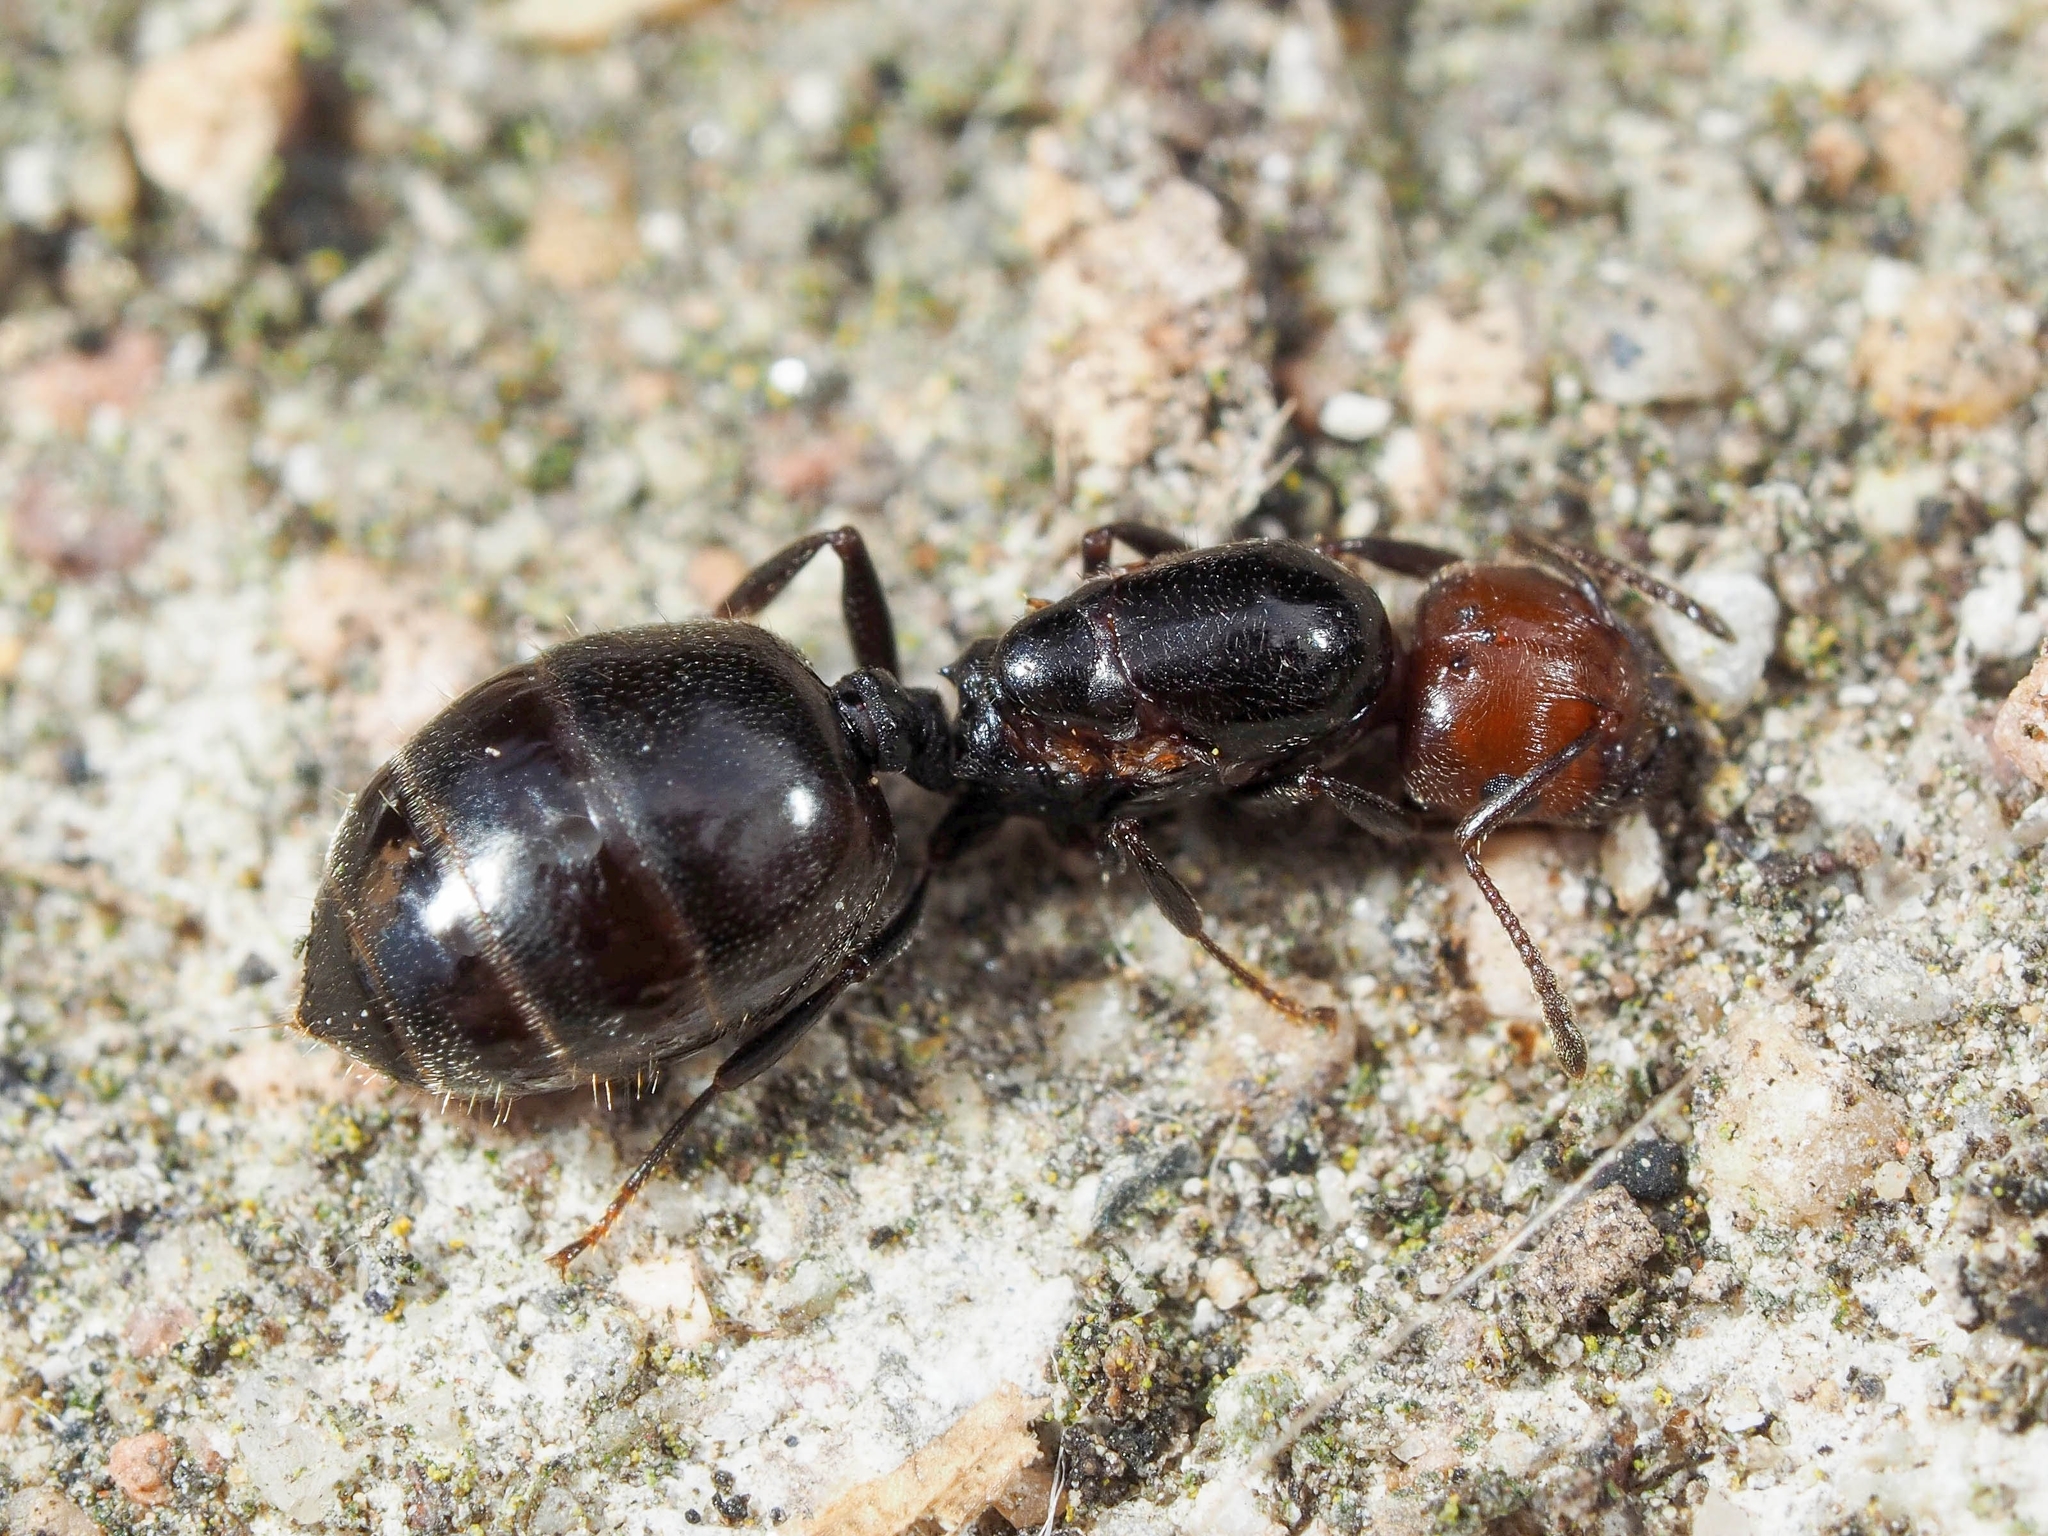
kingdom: Animalia
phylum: Arthropoda
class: Insecta
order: Hymenoptera
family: Formicidae
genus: Crematogaster
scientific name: Crematogaster scutellaris
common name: Fourmi du liège
